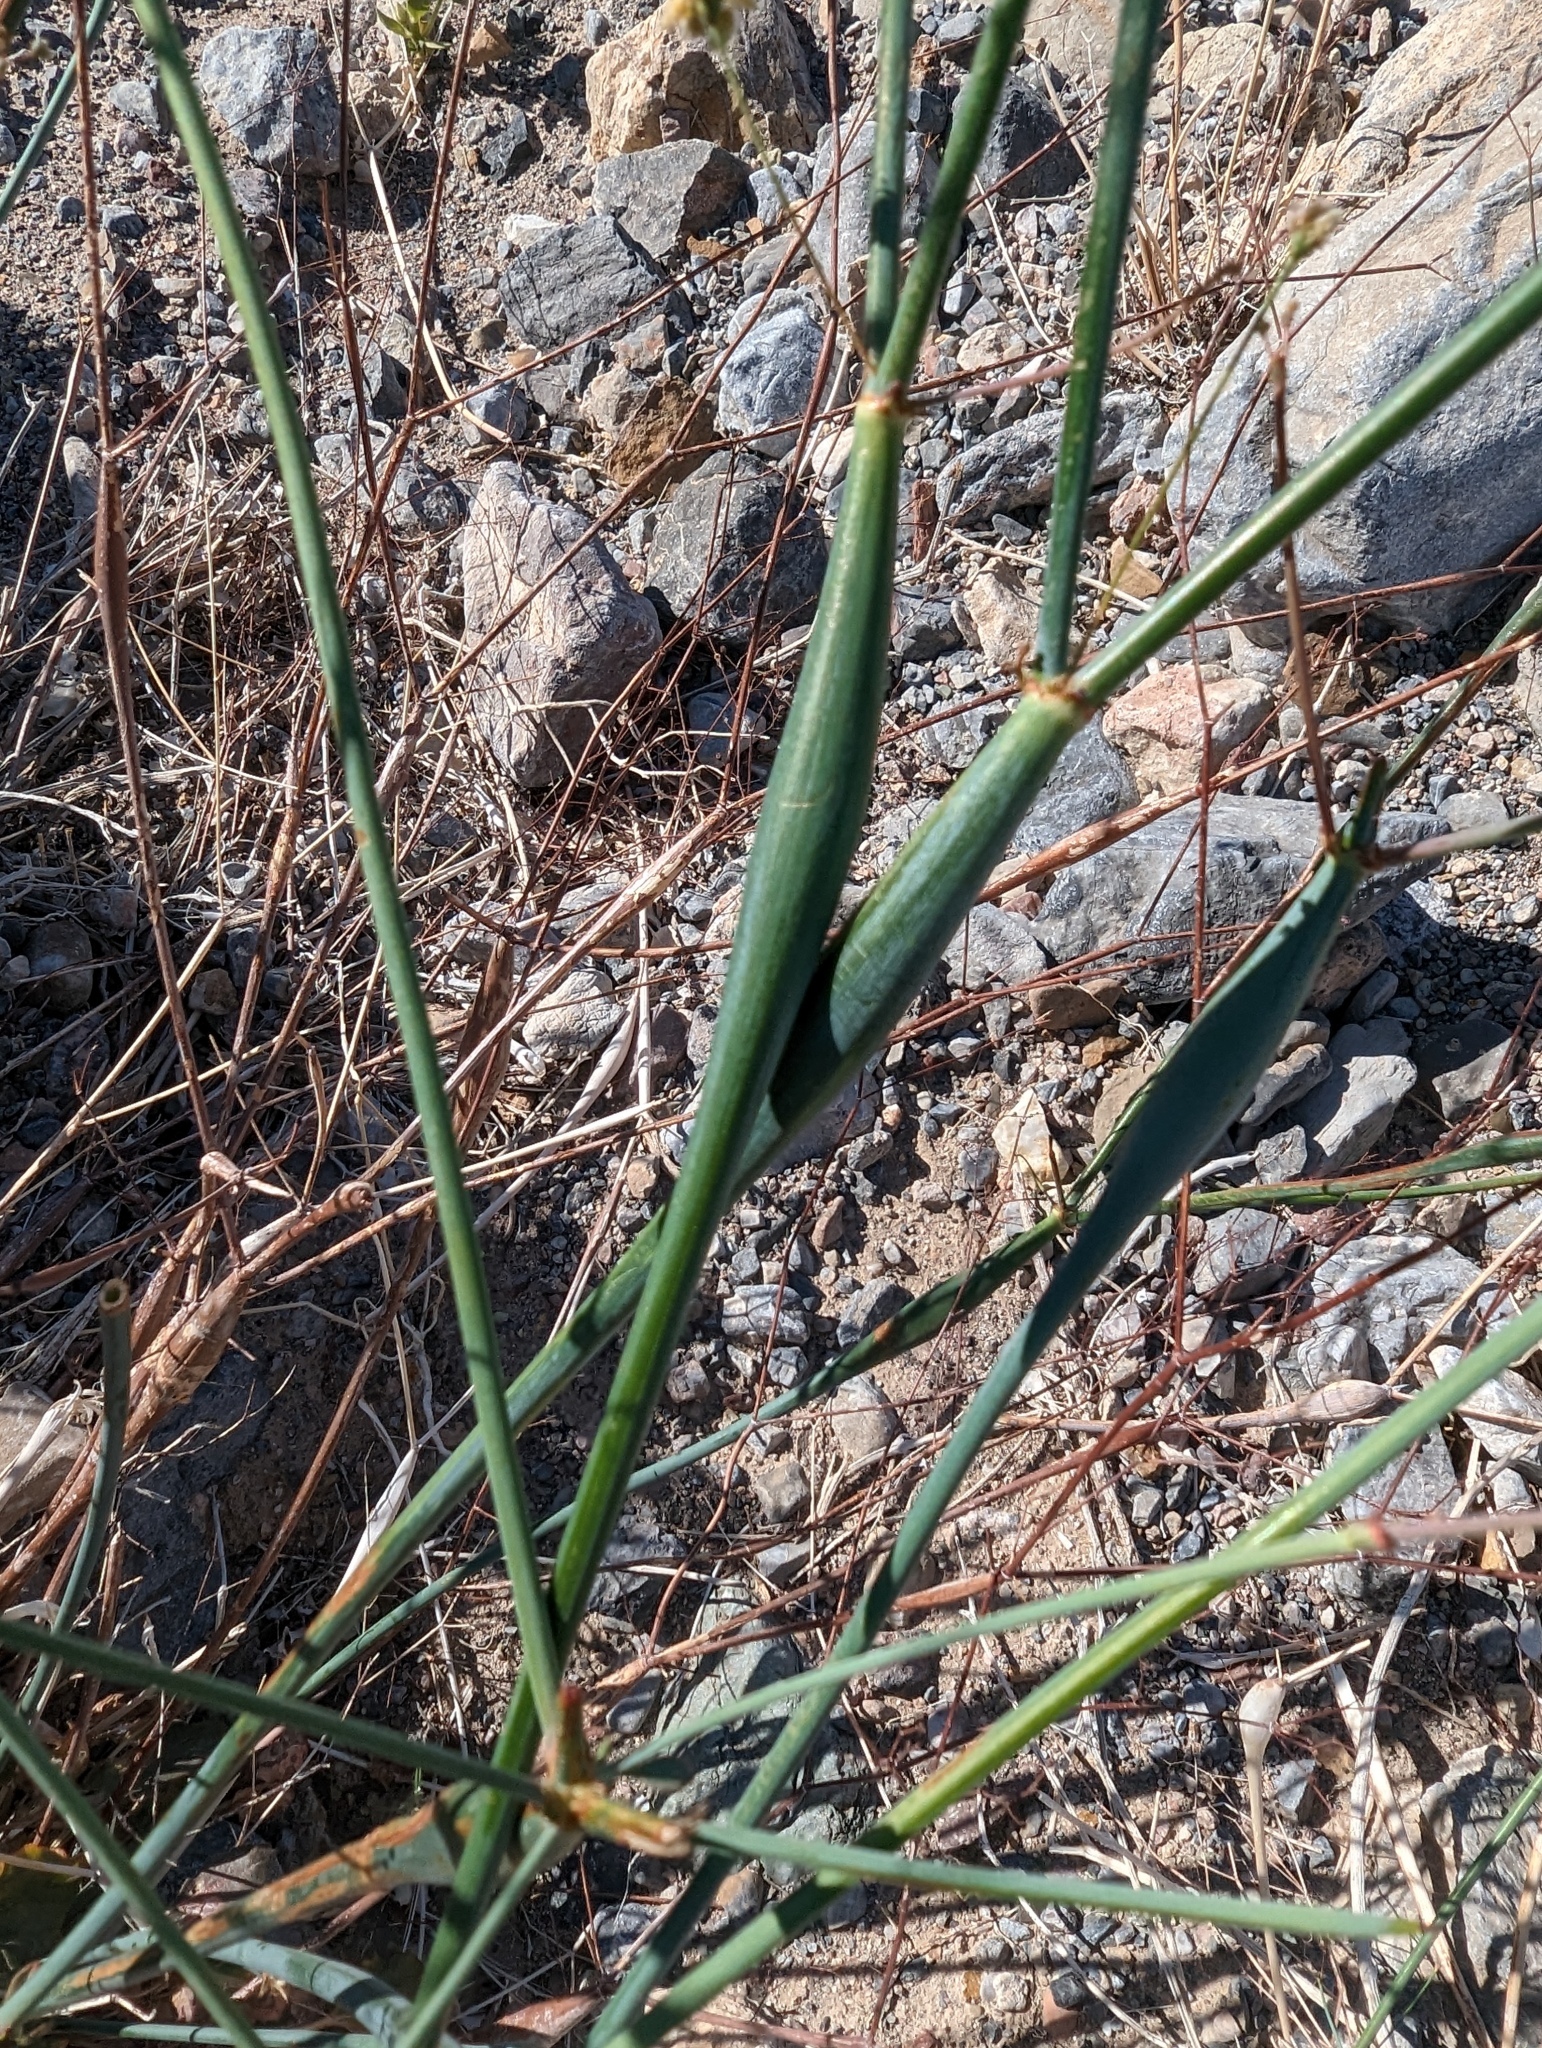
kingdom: Plantae
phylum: Tracheophyta
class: Magnoliopsida
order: Caryophyllales
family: Polygonaceae
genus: Eriogonum
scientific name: Eriogonum inflatum
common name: Desert trumpet
